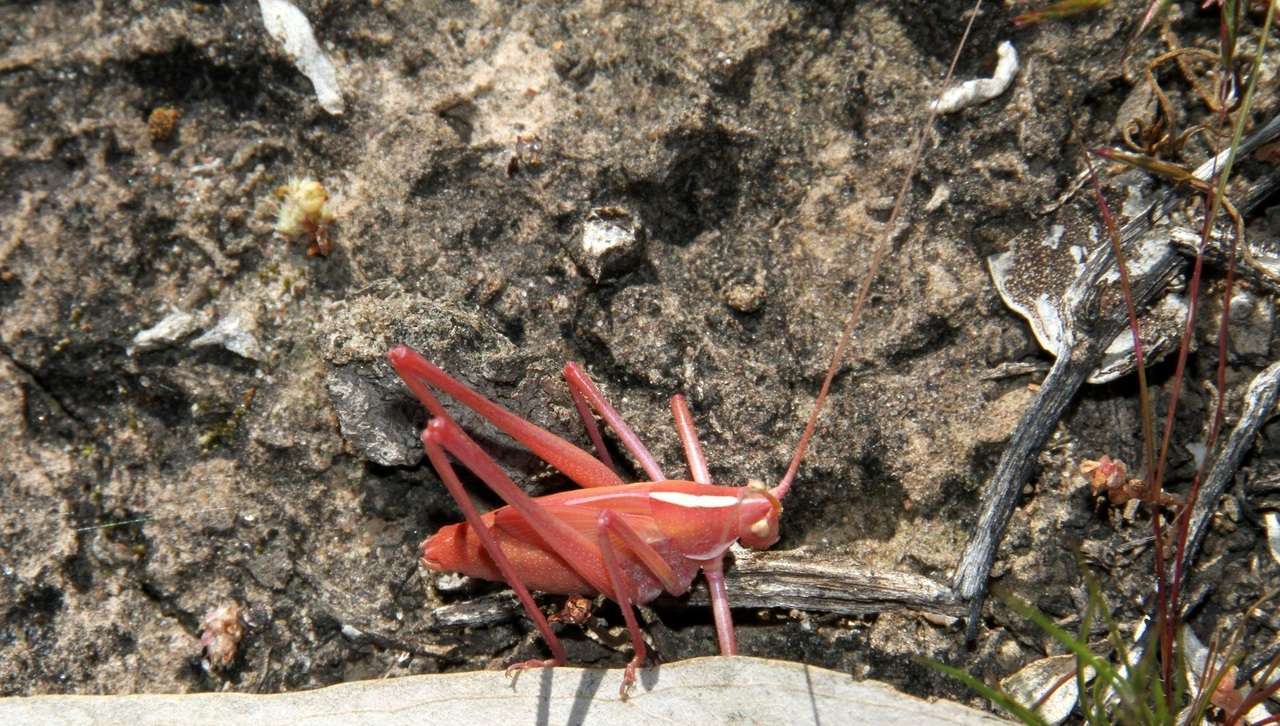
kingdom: Animalia
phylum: Arthropoda
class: Insecta
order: Orthoptera
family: Tettigoniidae
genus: Tinzeda
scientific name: Tinzeda sororoides
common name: Southern tinzeda
